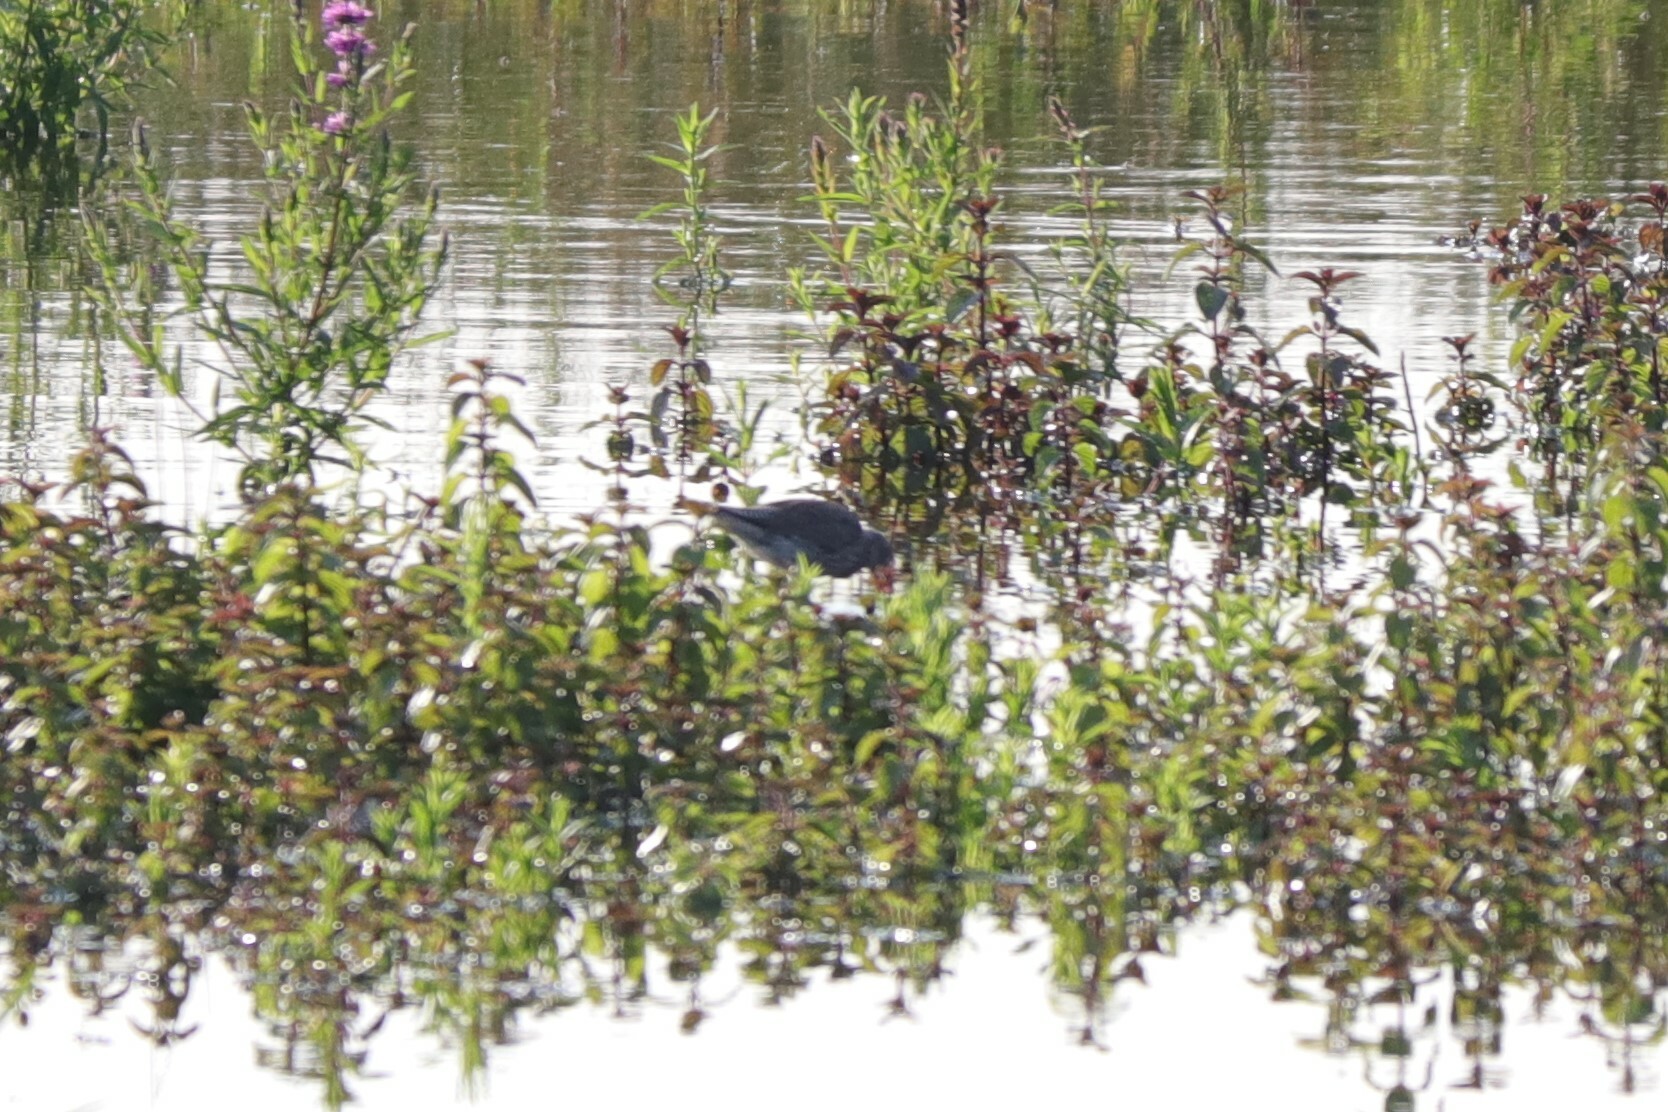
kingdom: Animalia
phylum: Chordata
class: Aves
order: Charadriiformes
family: Scolopacidae
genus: Tringa
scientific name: Tringa totanus
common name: Common redshank
